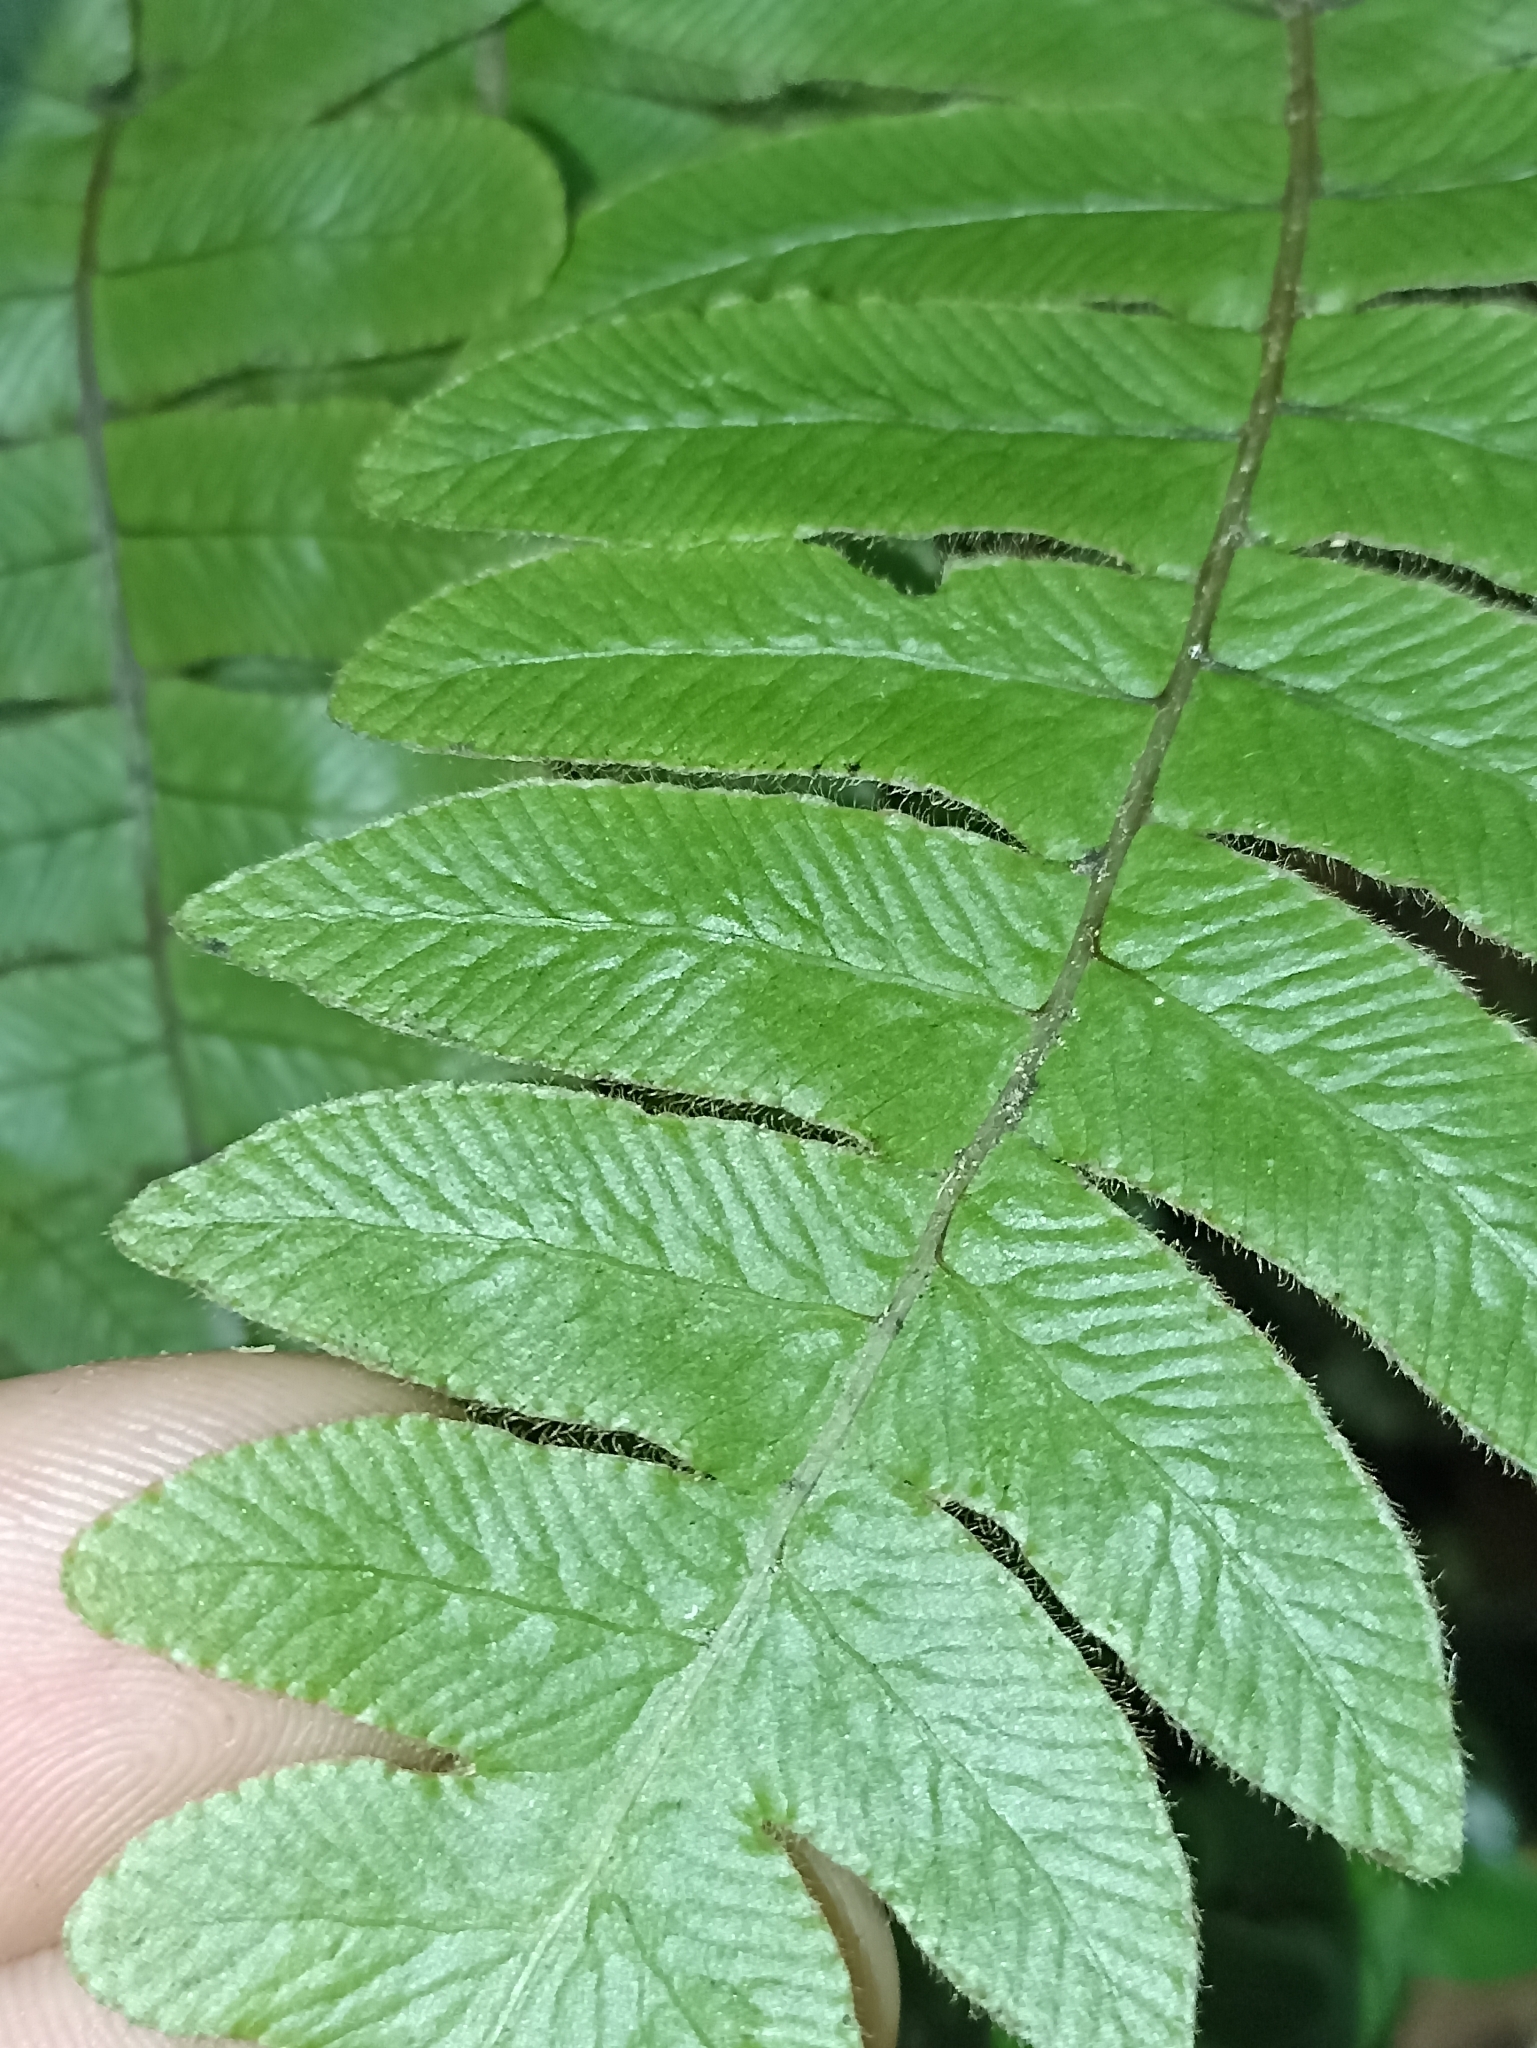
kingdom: Plantae
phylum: Tracheophyta
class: Polypodiopsida
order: Polypodiales
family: Blechnaceae
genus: Cranfillia
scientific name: Cranfillia deltoides
